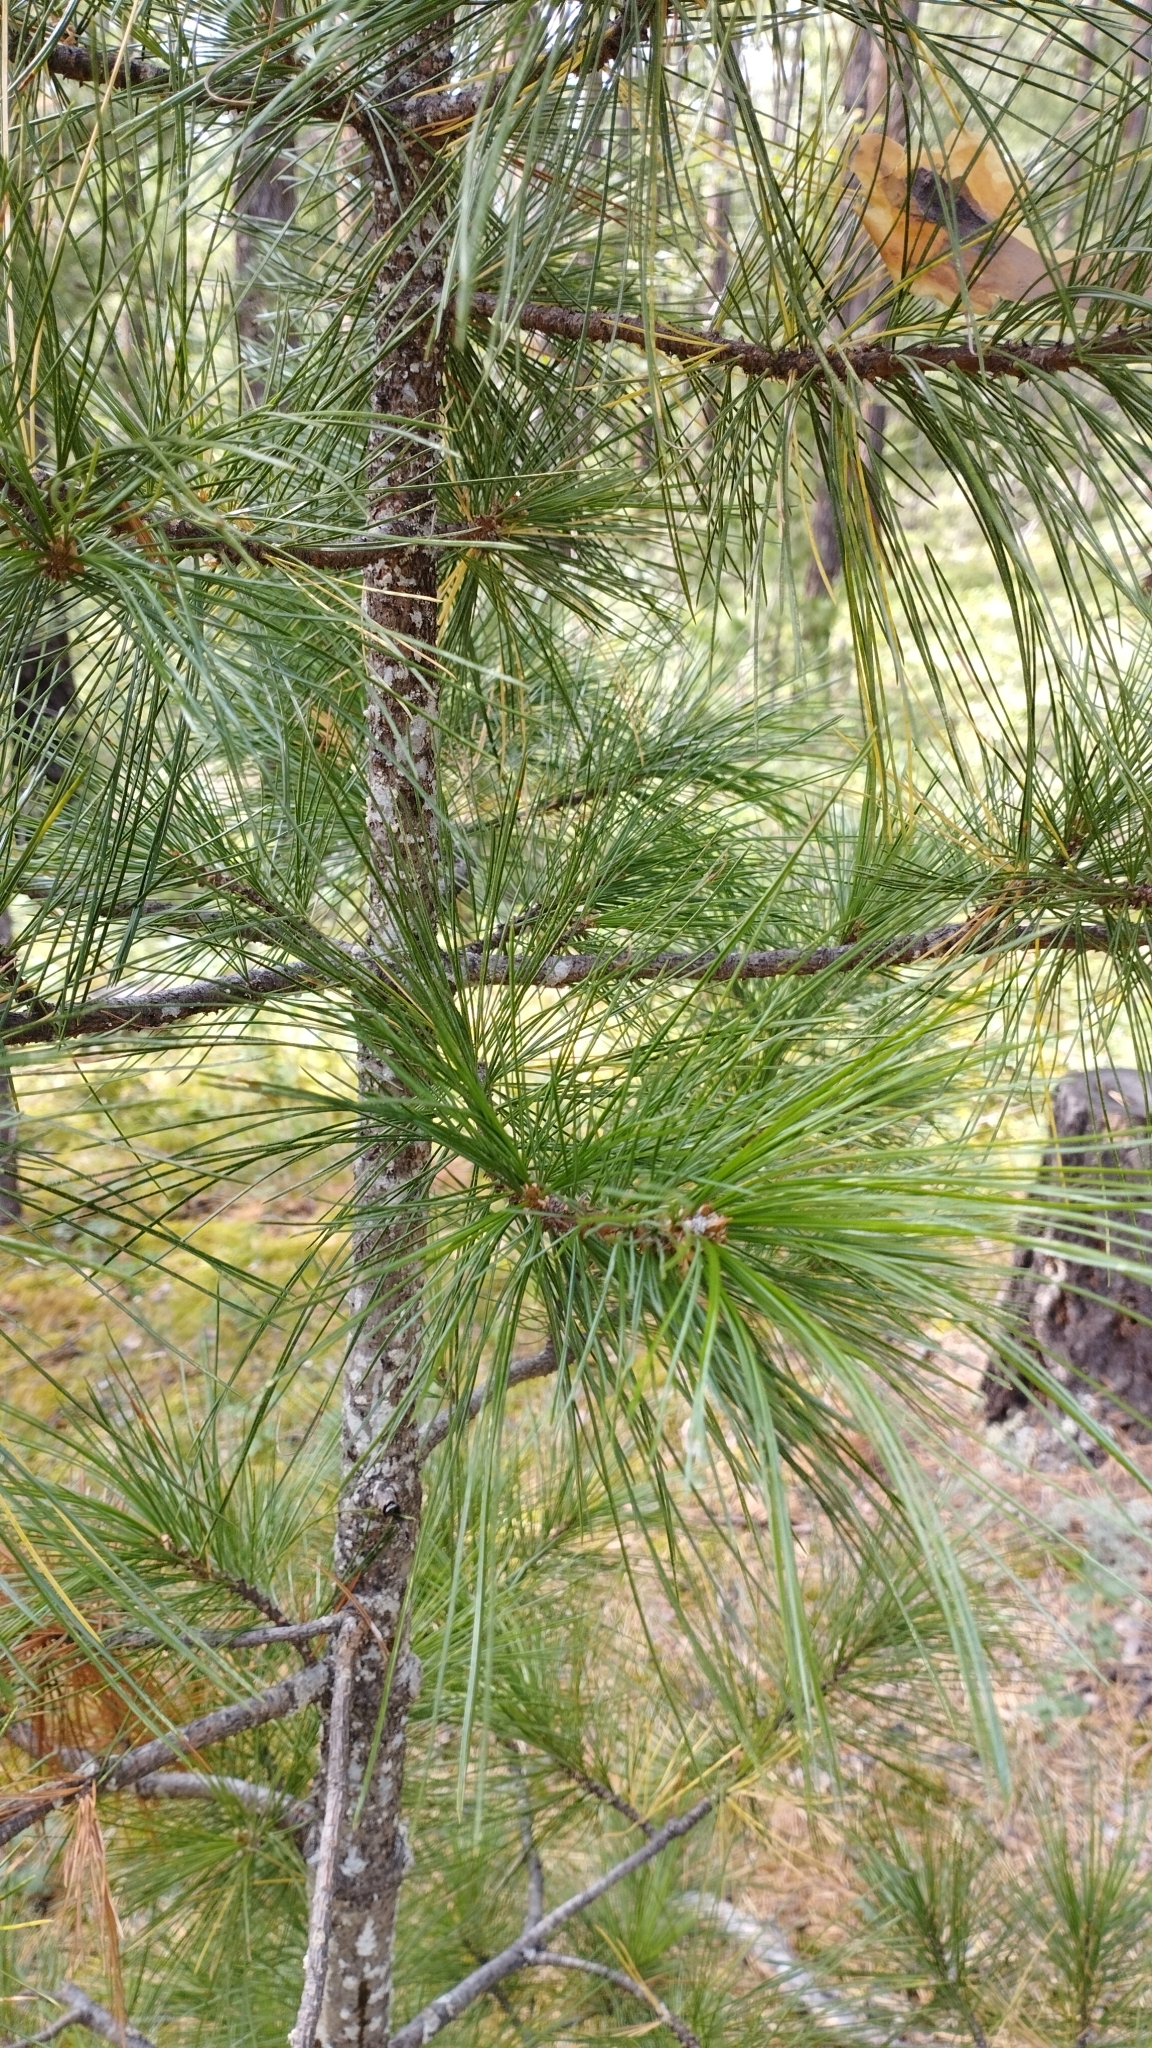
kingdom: Plantae
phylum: Tracheophyta
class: Pinopsida
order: Pinales
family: Pinaceae
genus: Pinus
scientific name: Pinus sibirica
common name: Siberian pine
